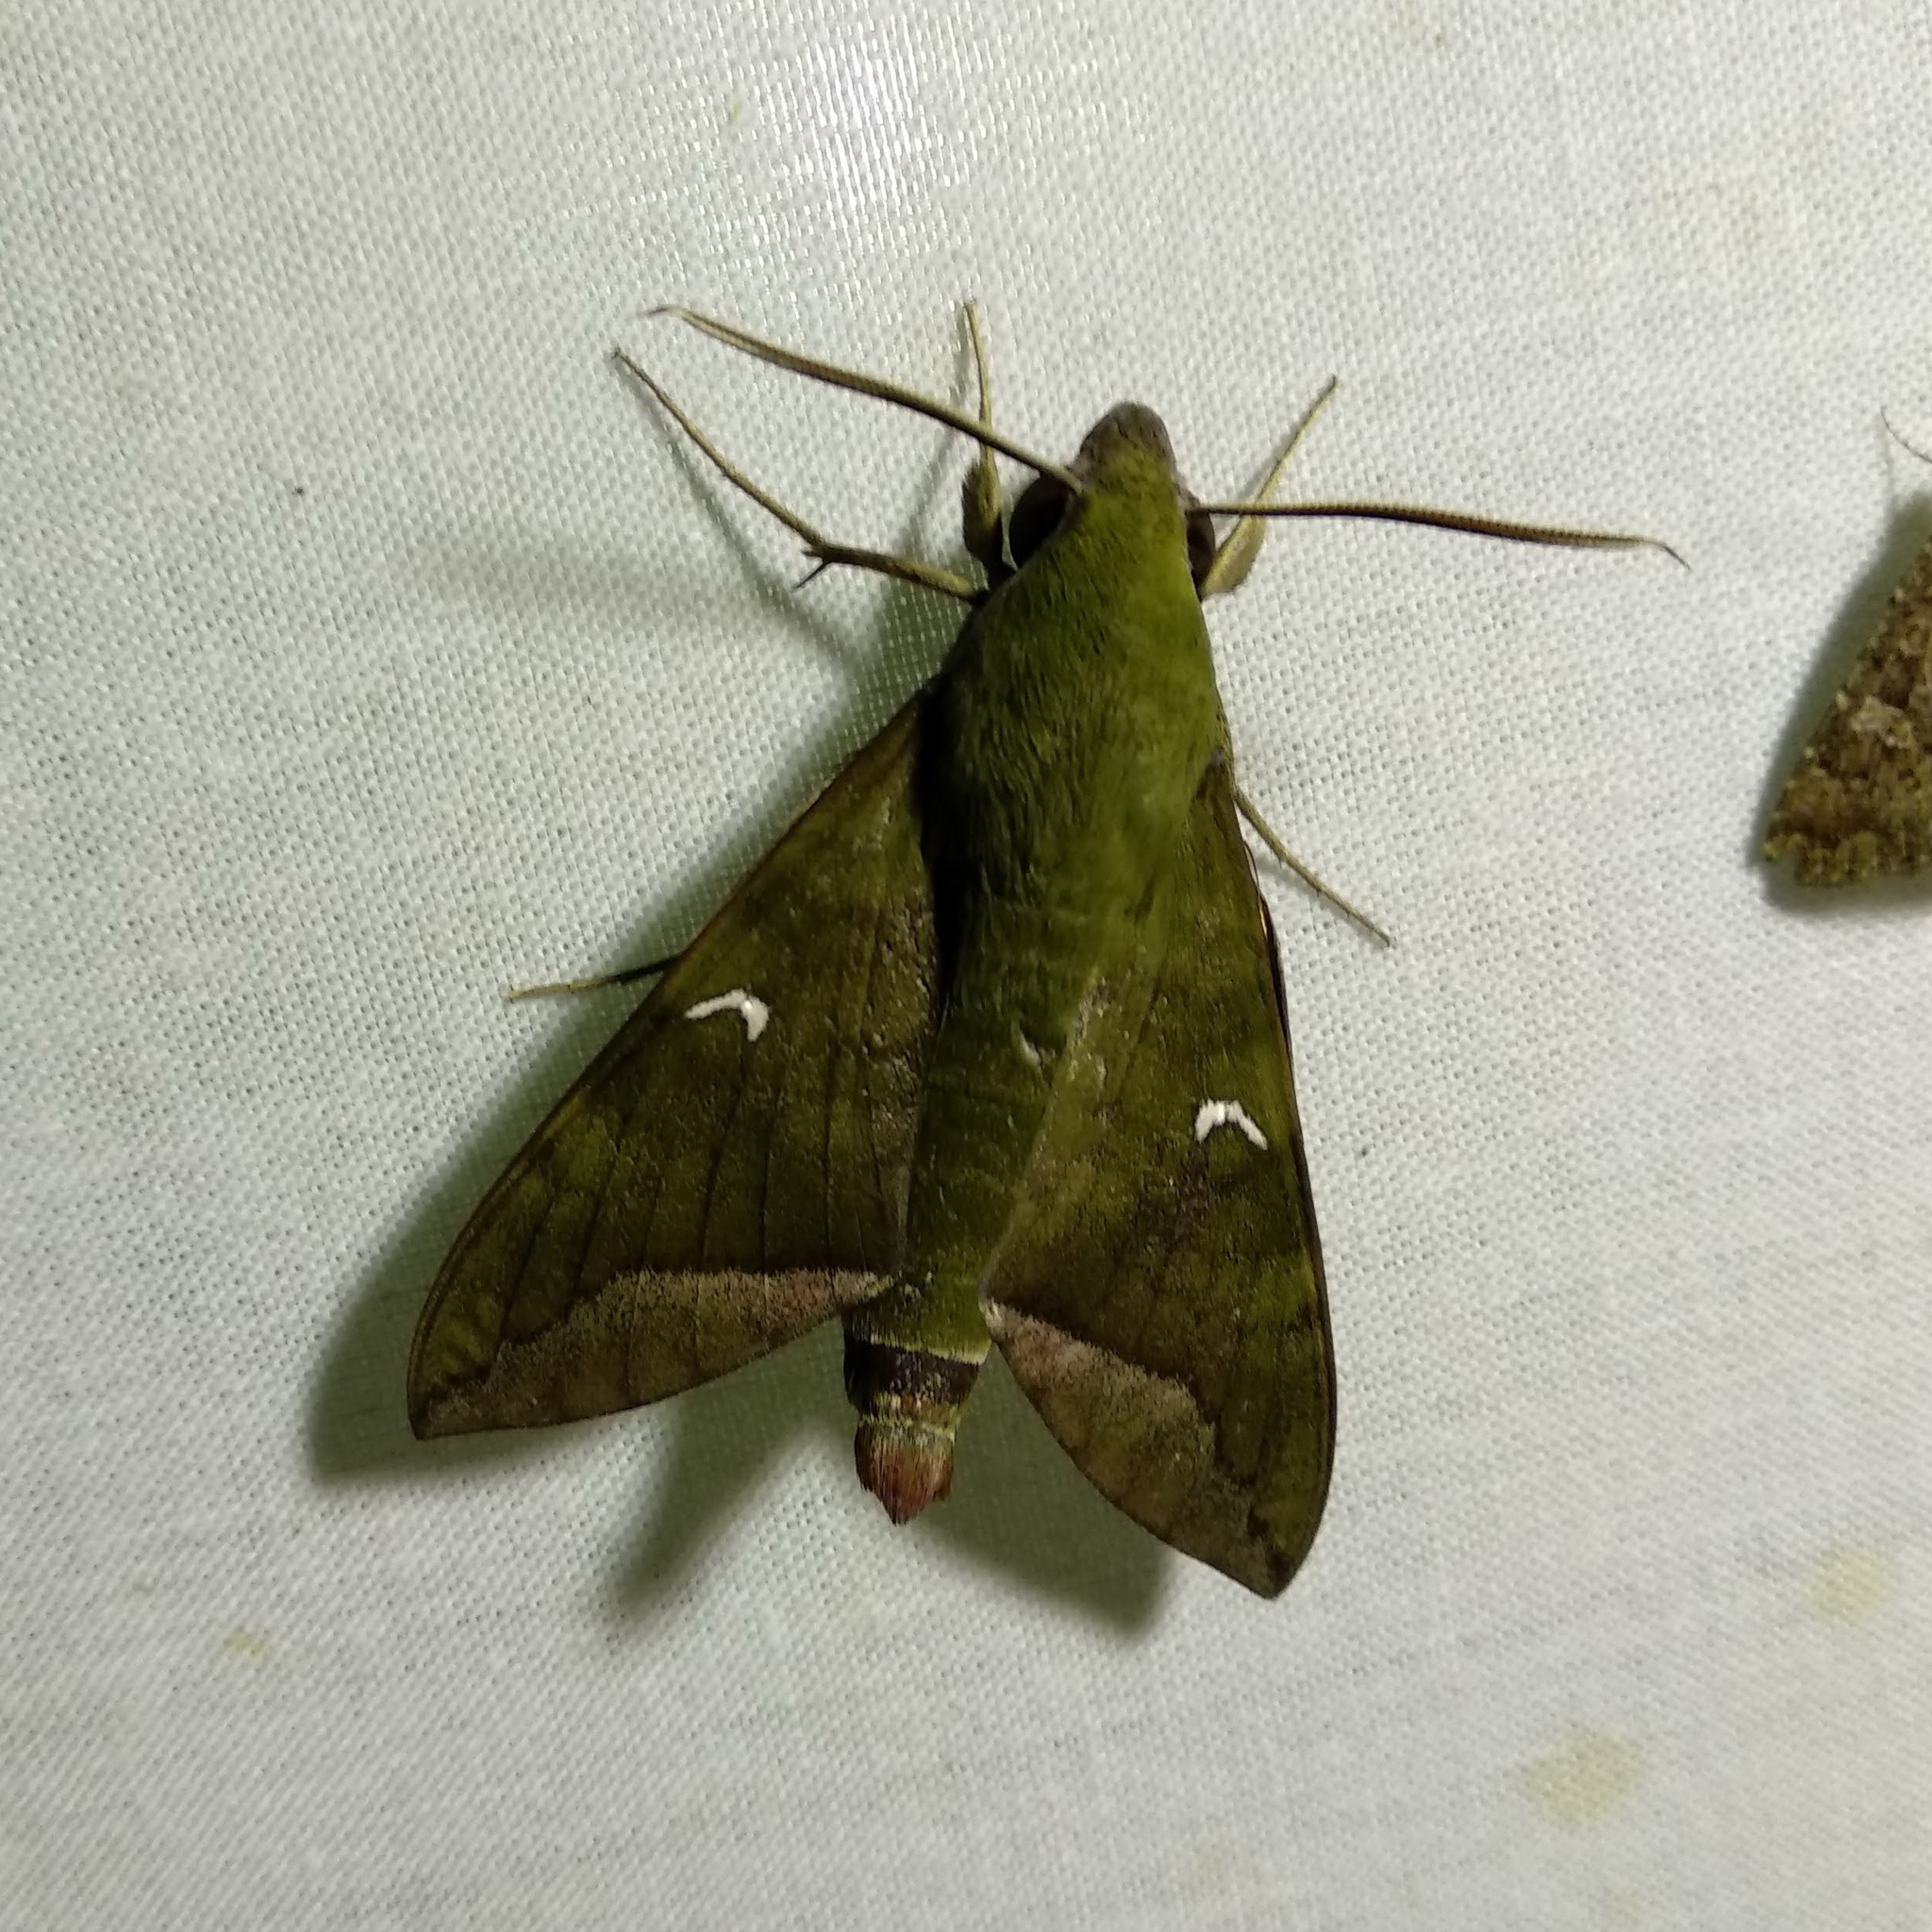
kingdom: Animalia
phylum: Arthropoda
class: Insecta
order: Lepidoptera
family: Sphingidae
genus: Nephele
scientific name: Nephele comma
